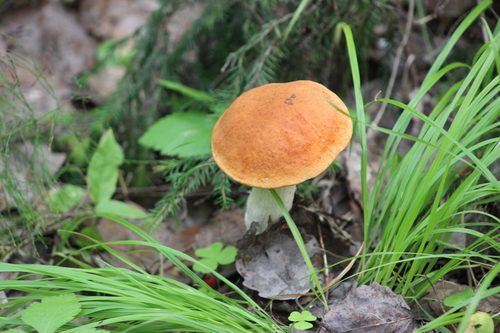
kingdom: Fungi
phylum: Basidiomycota
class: Agaricomycetes
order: Boletales
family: Boletaceae
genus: Leccinum
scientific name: Leccinum albostipitatum
